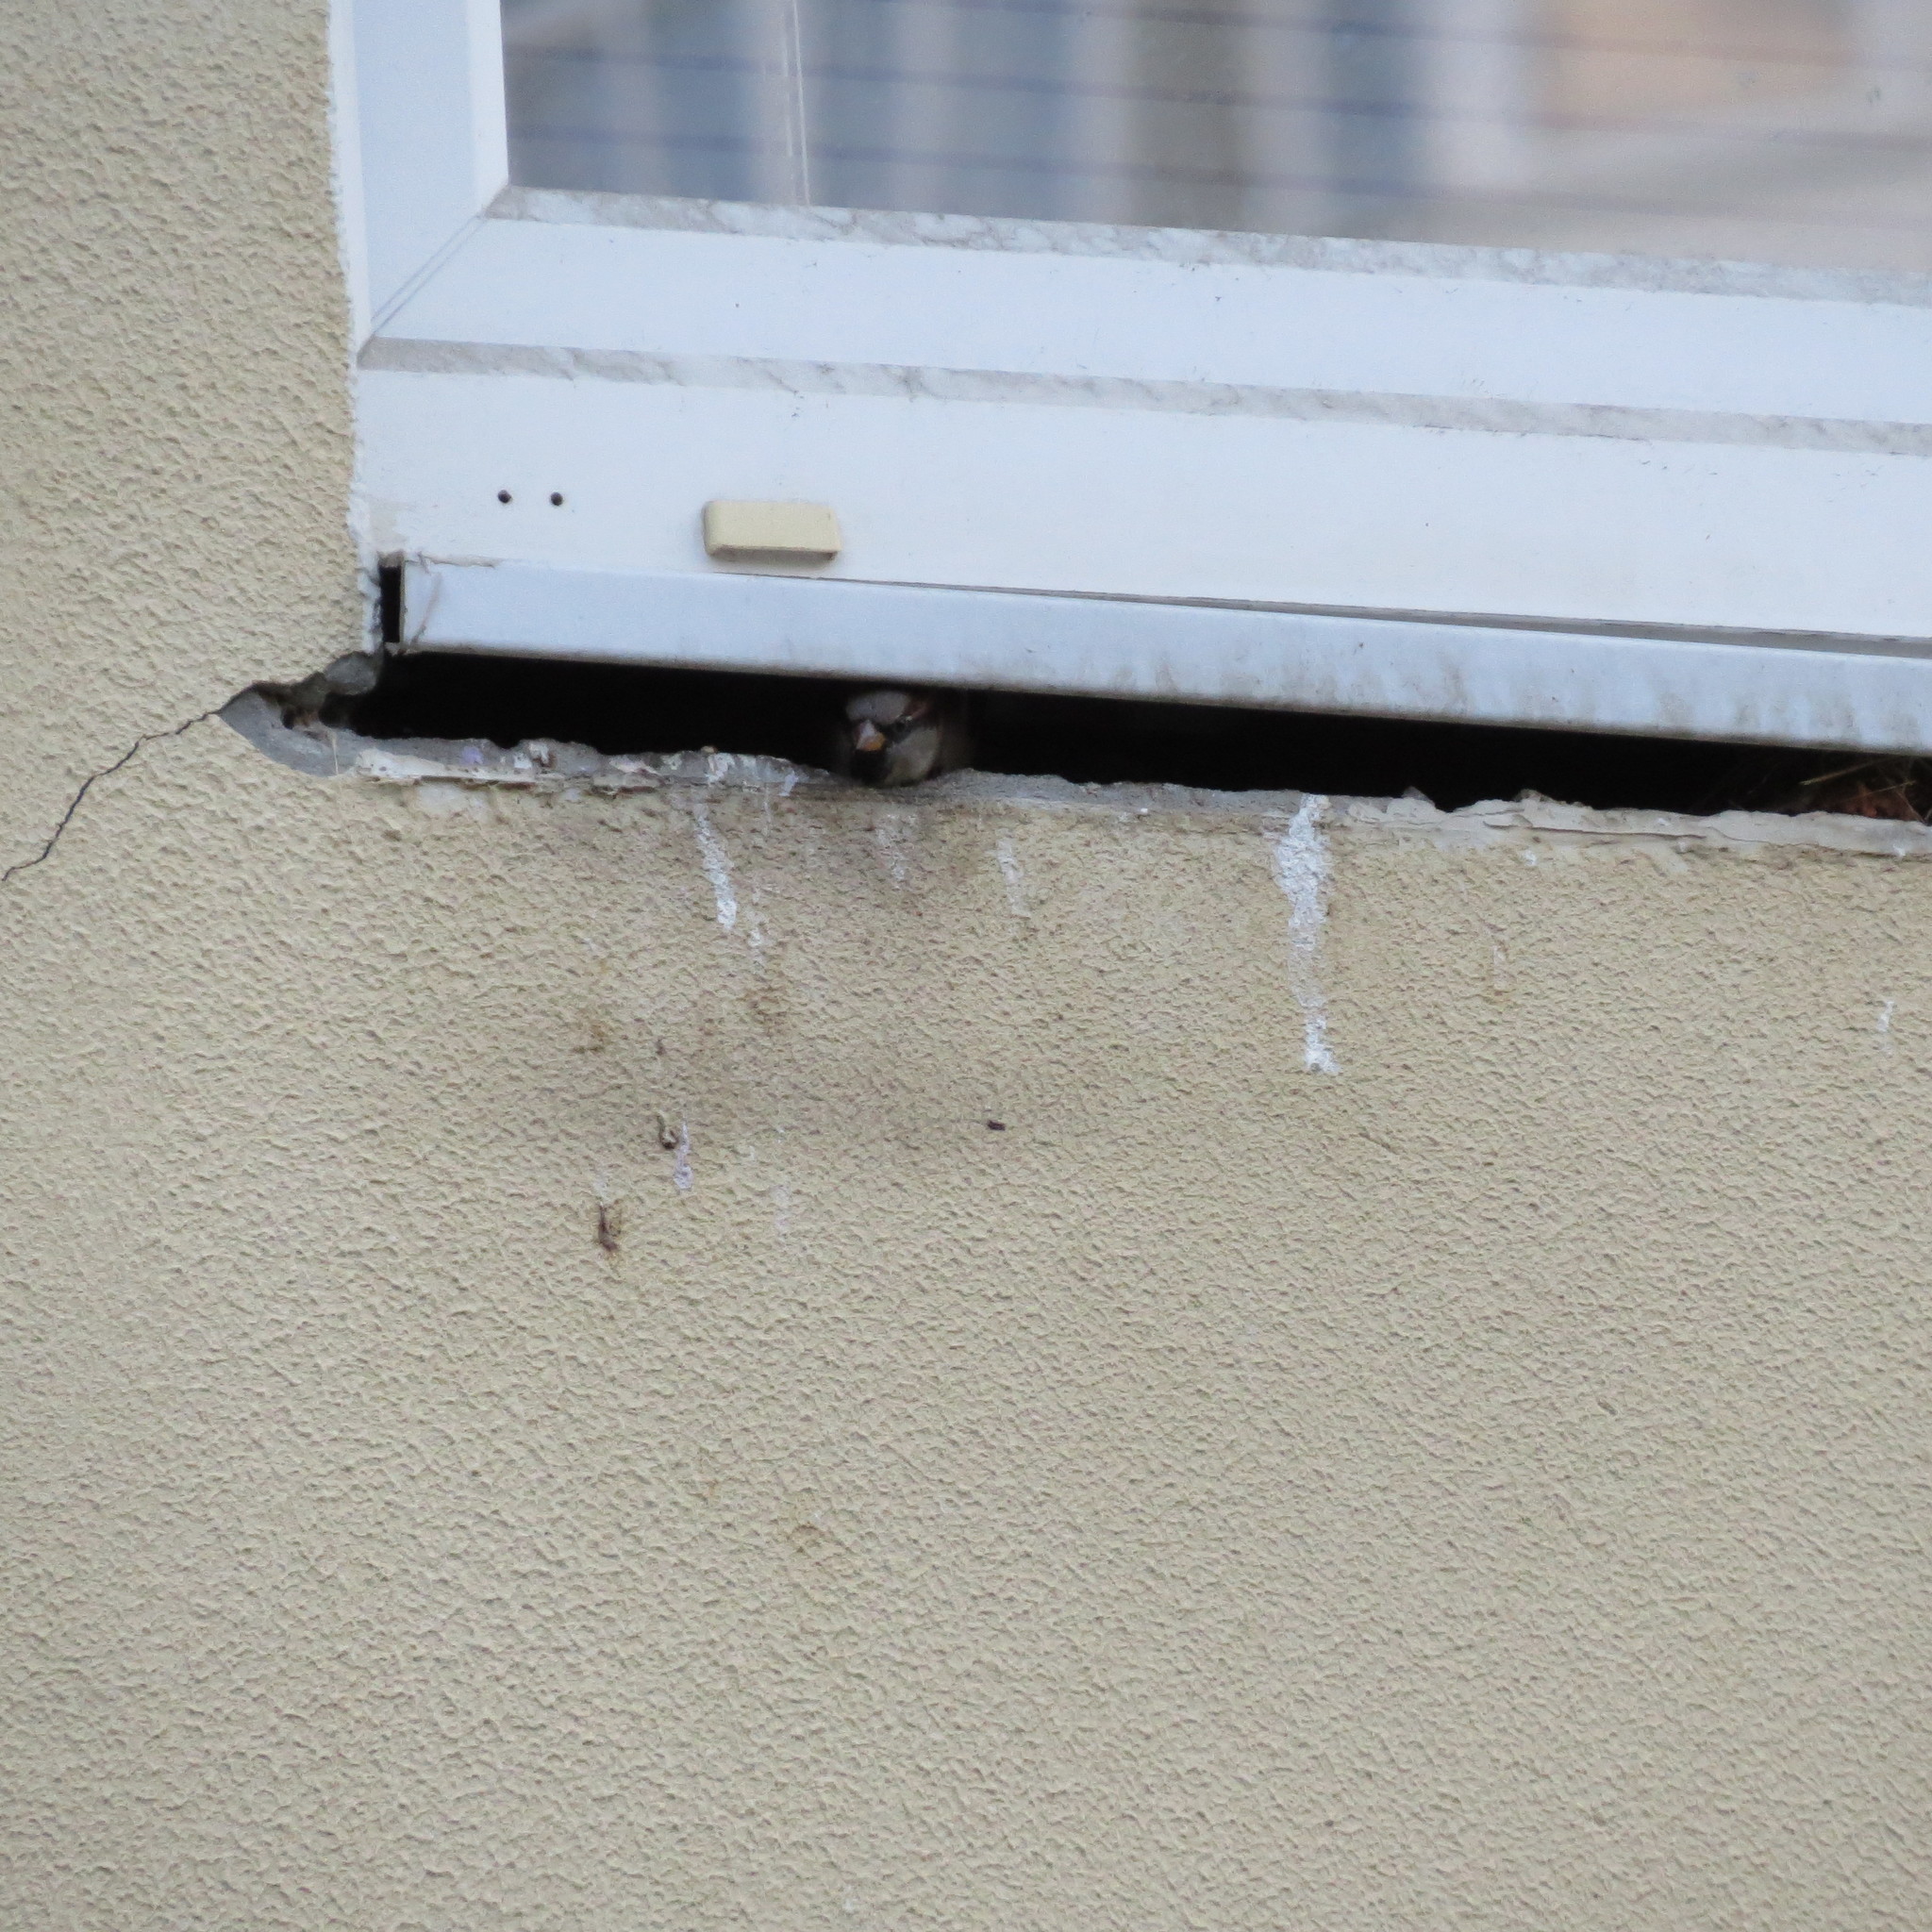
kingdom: Animalia
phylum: Chordata
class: Aves
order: Passeriformes
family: Passeridae
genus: Passer
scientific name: Passer domesticus
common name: House sparrow
